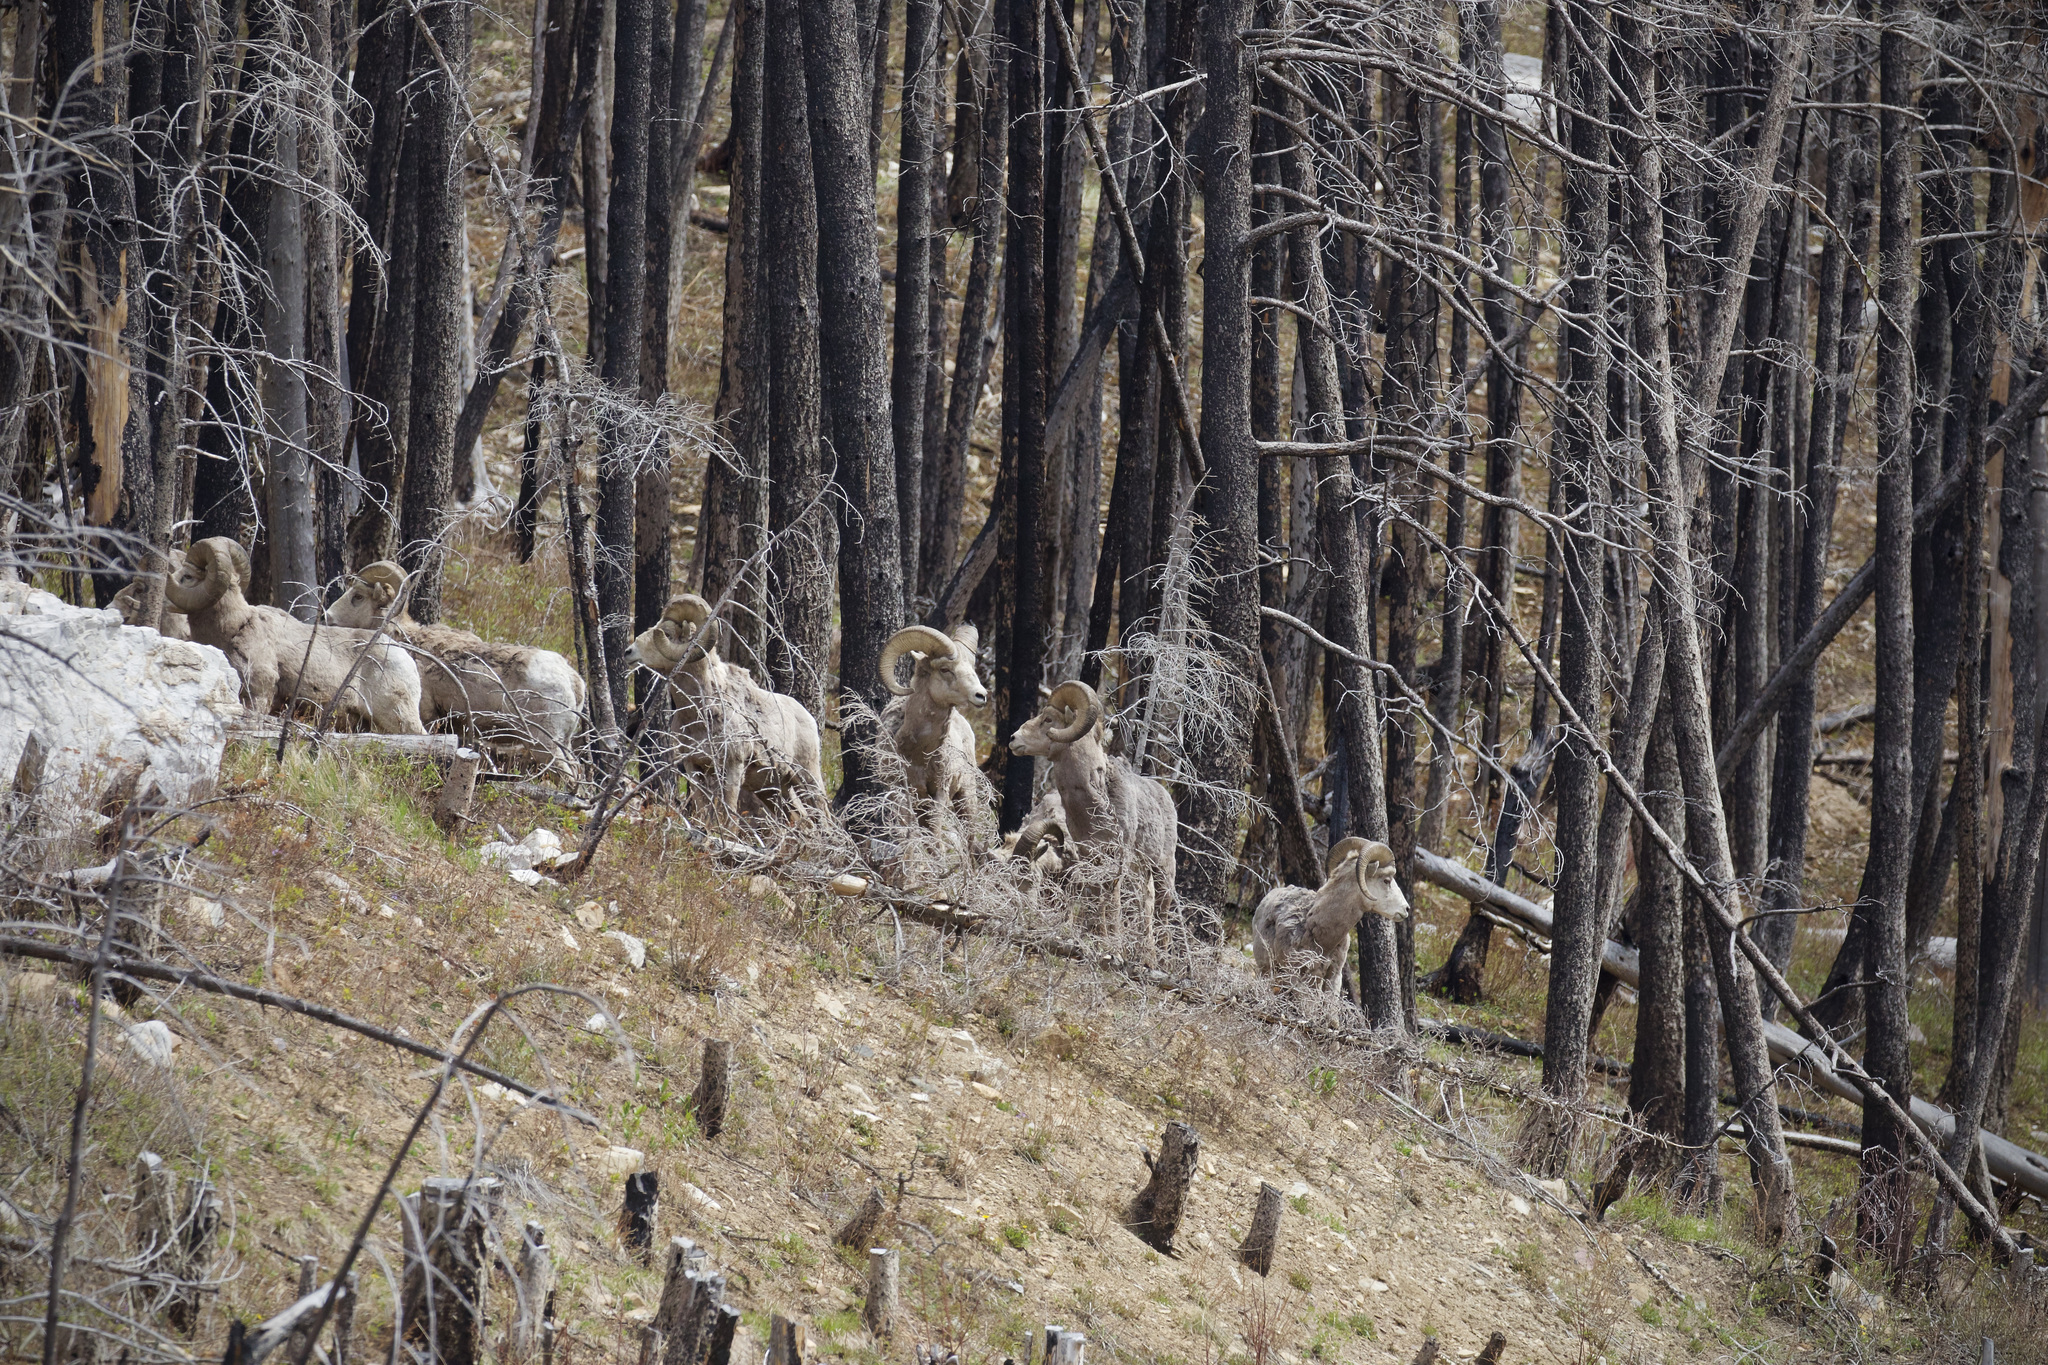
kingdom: Animalia
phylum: Chordata
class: Mammalia
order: Artiodactyla
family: Bovidae
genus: Ovis
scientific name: Ovis canadensis
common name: Bighorn sheep
